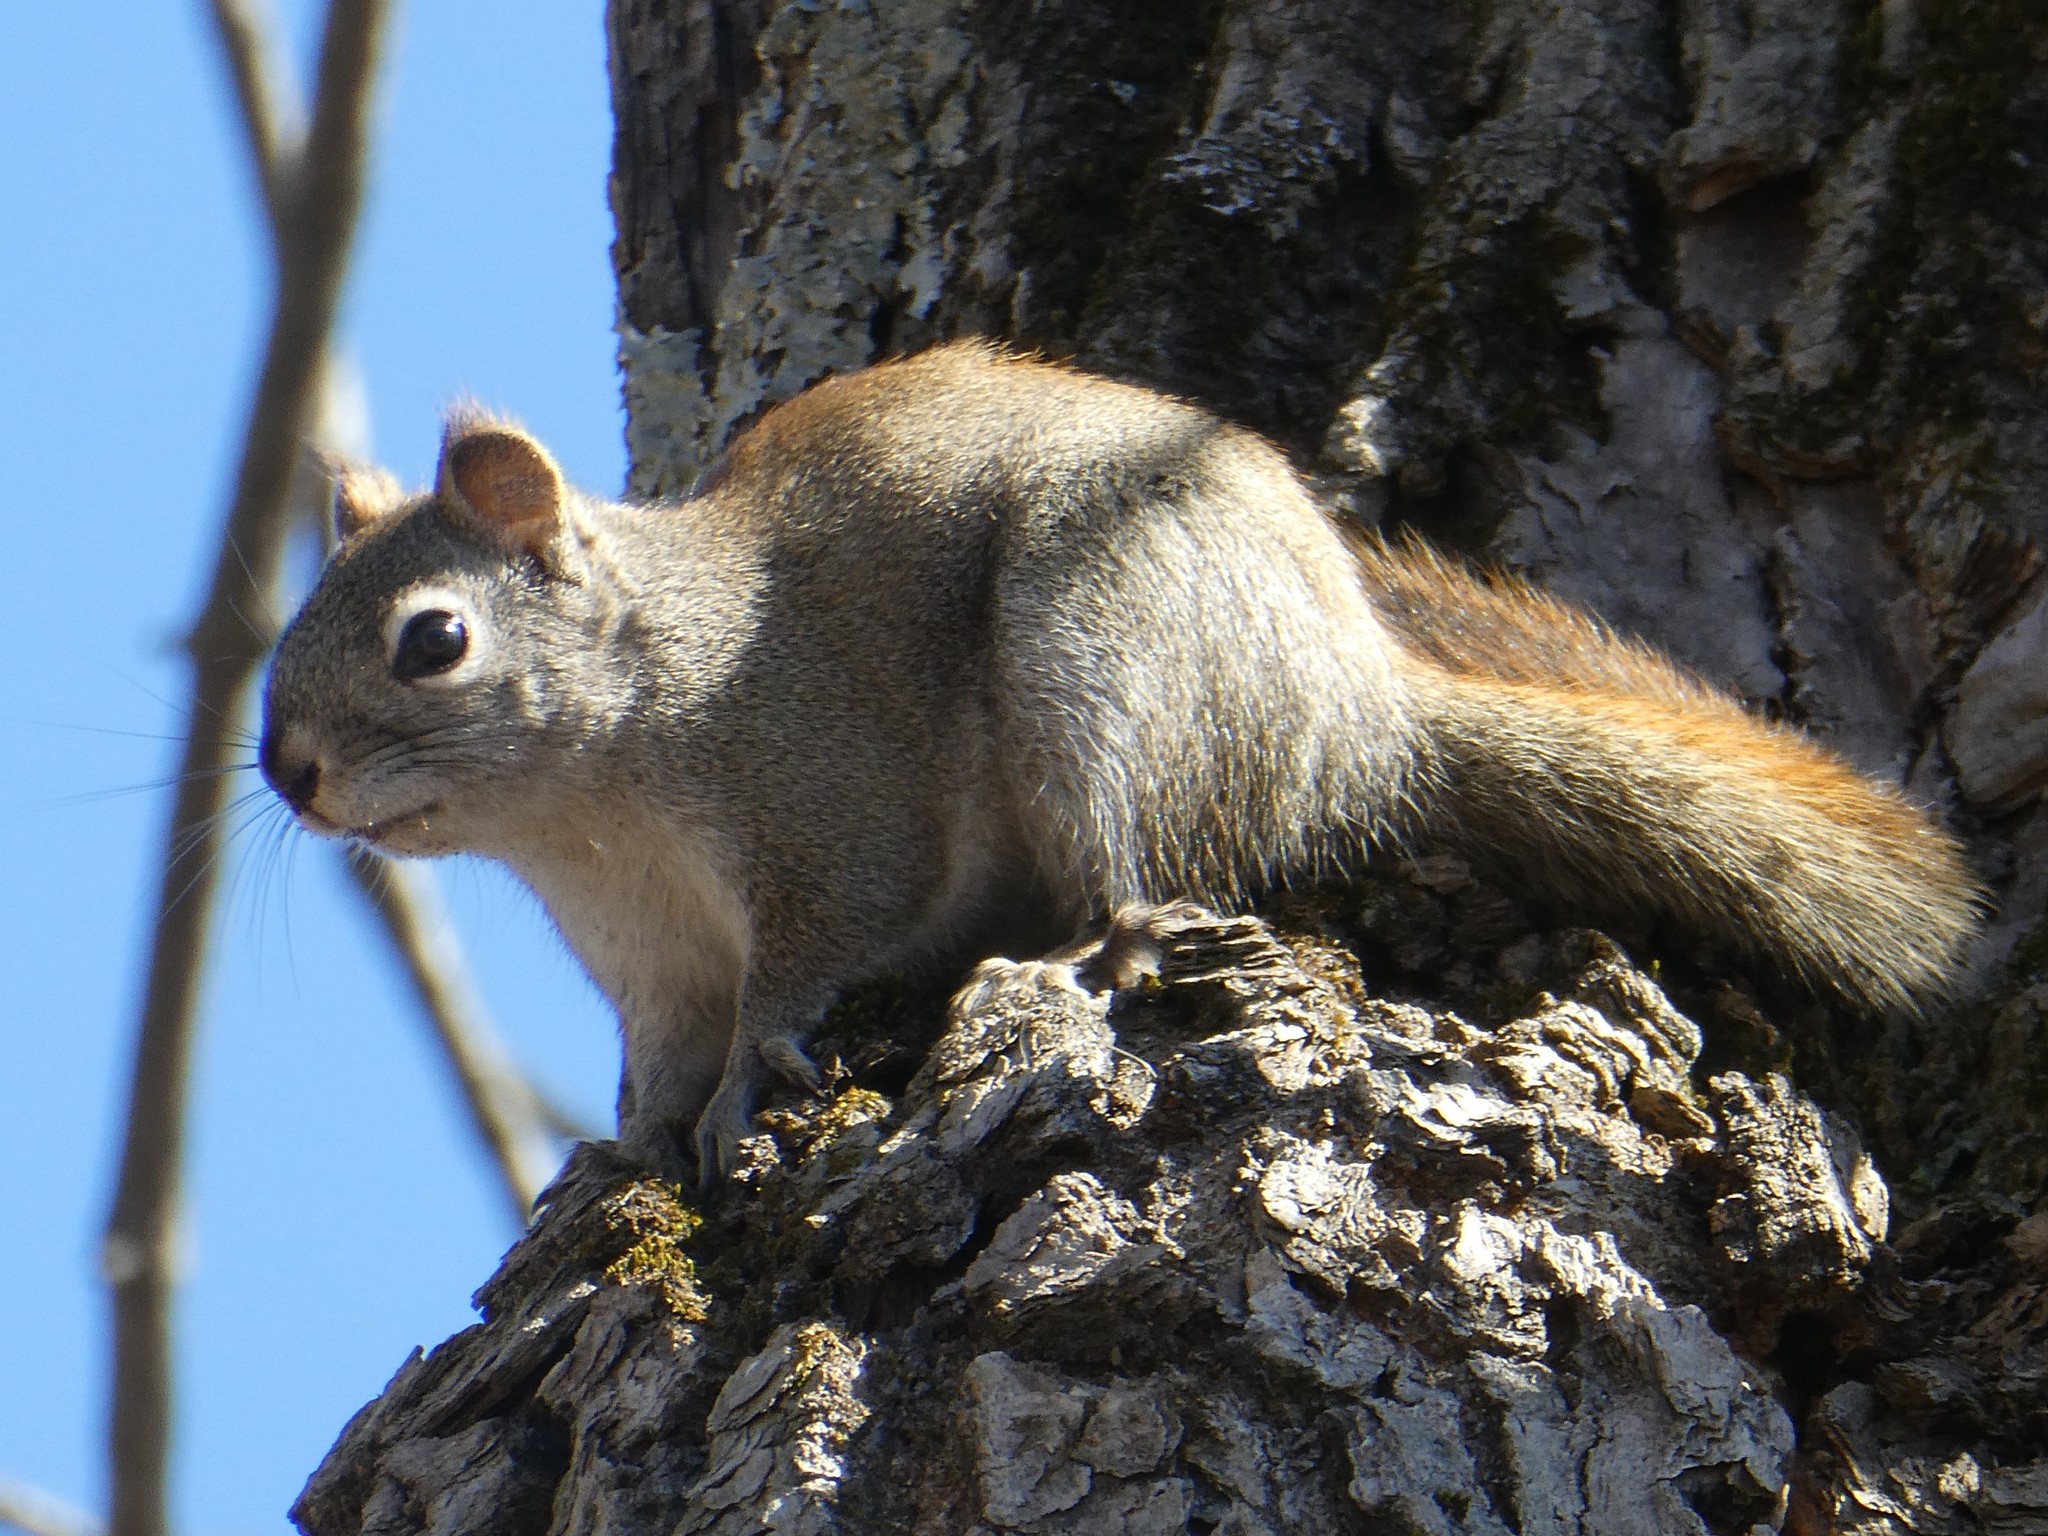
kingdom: Animalia
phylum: Chordata
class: Mammalia
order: Rodentia
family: Sciuridae
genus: Tamiasciurus
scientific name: Tamiasciurus hudsonicus
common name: Red squirrel
